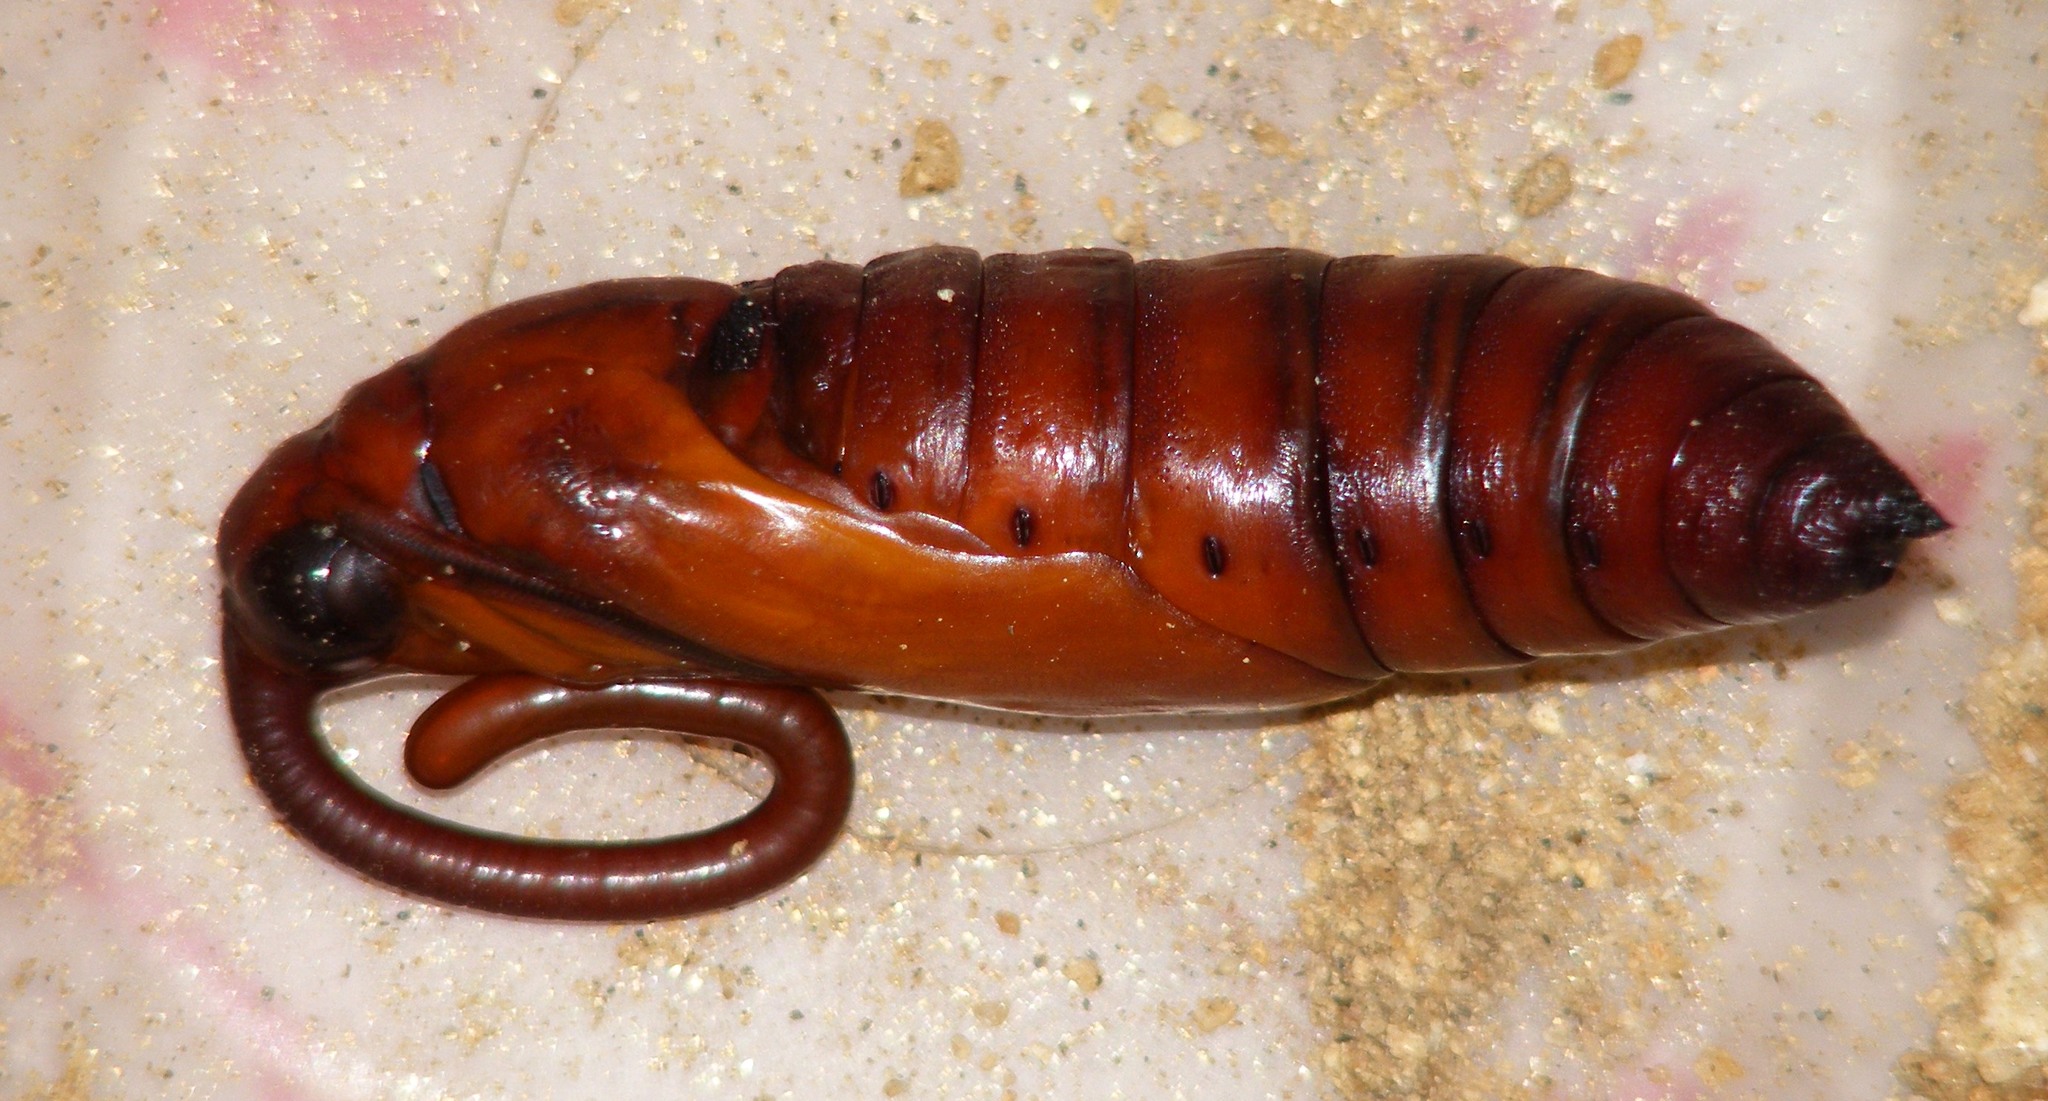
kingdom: Animalia
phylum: Arthropoda
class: Insecta
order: Lepidoptera
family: Sphingidae
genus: Agrius
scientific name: Agrius convolvuli
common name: Convolvulus hawkmoth
